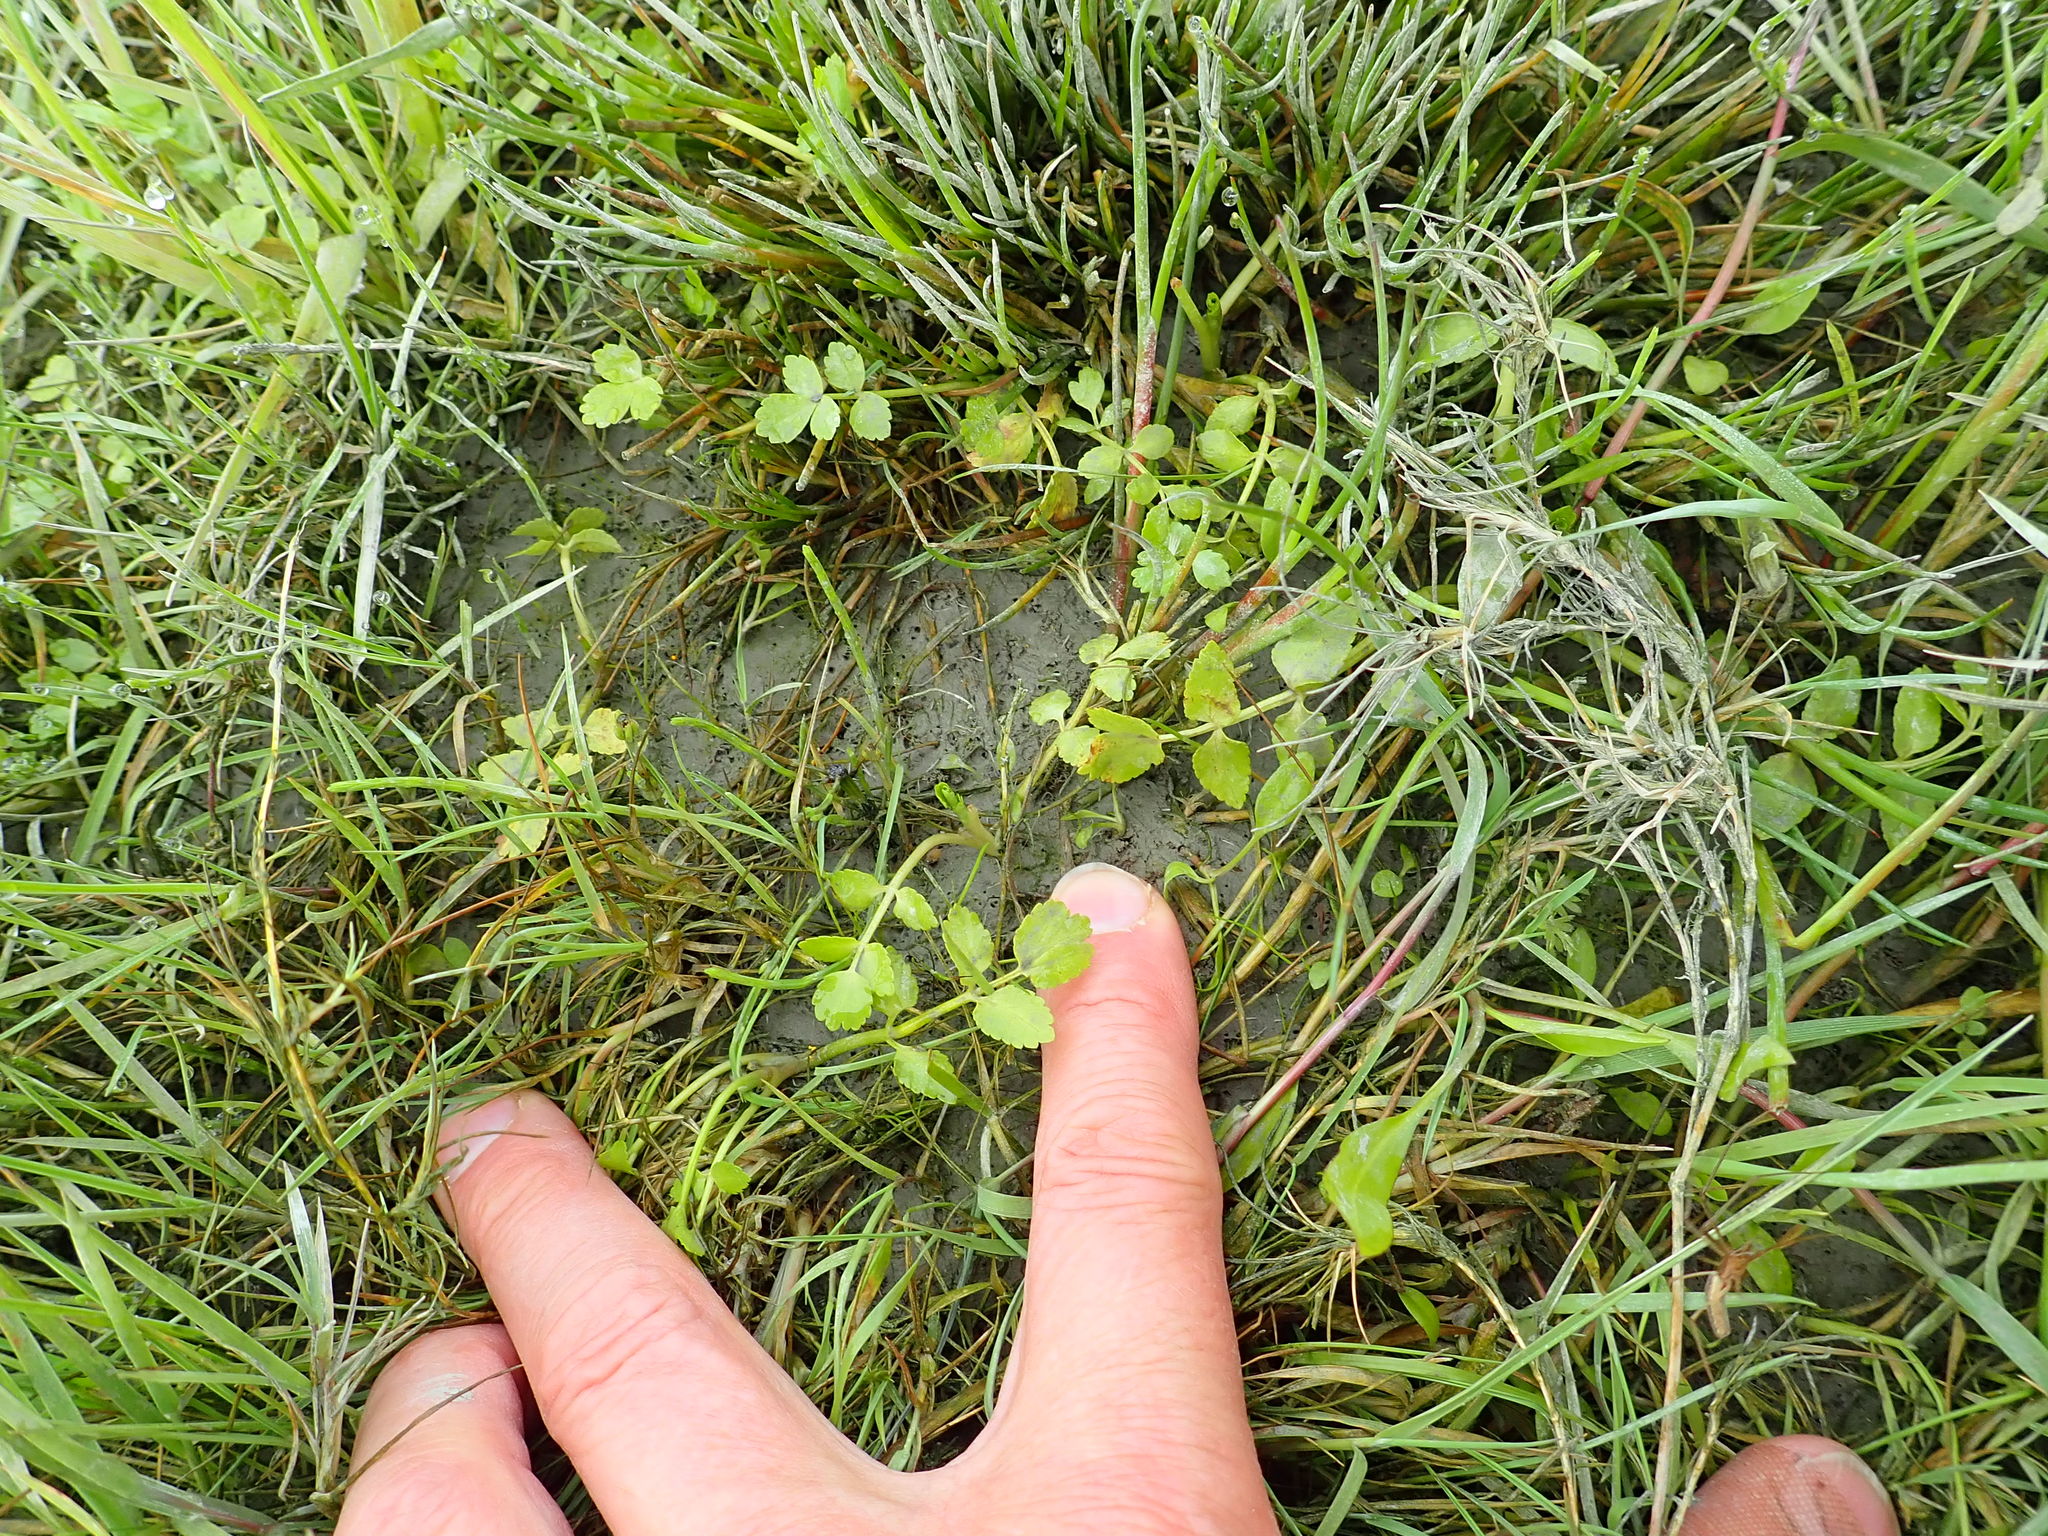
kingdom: Plantae
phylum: Tracheophyta
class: Magnoliopsida
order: Apiales
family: Apiaceae
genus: Apium
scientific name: Apium prostratum
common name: Prostrate marshwort
